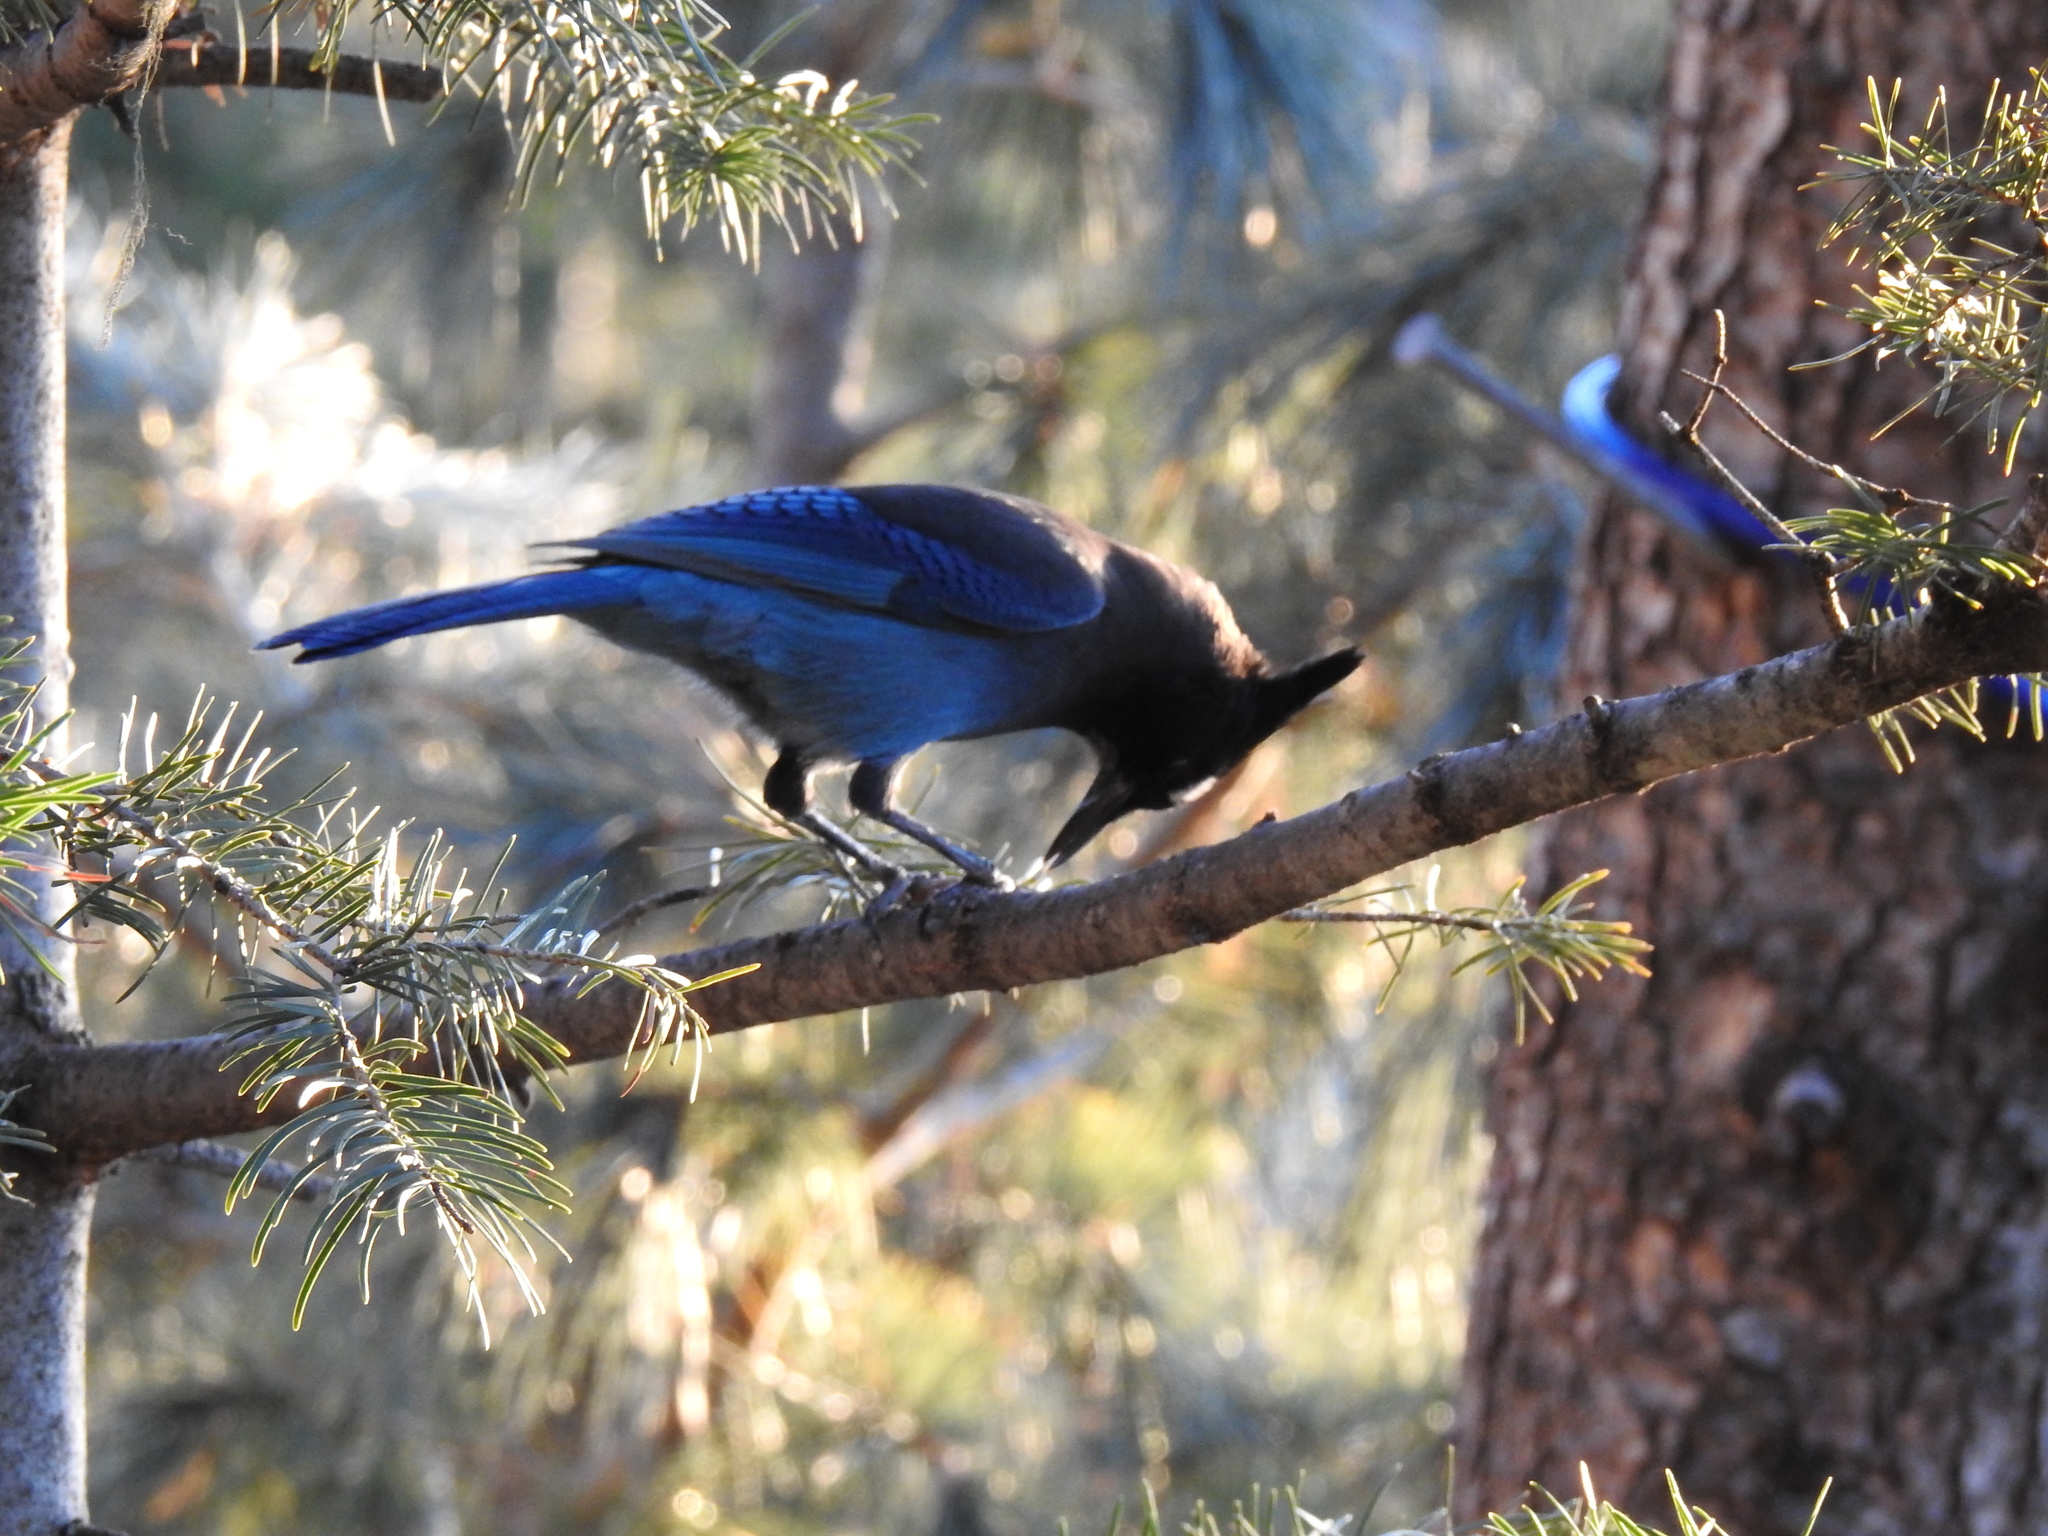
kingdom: Animalia
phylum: Chordata
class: Aves
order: Passeriformes
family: Corvidae
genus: Cyanocitta
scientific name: Cyanocitta stelleri
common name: Steller's jay
